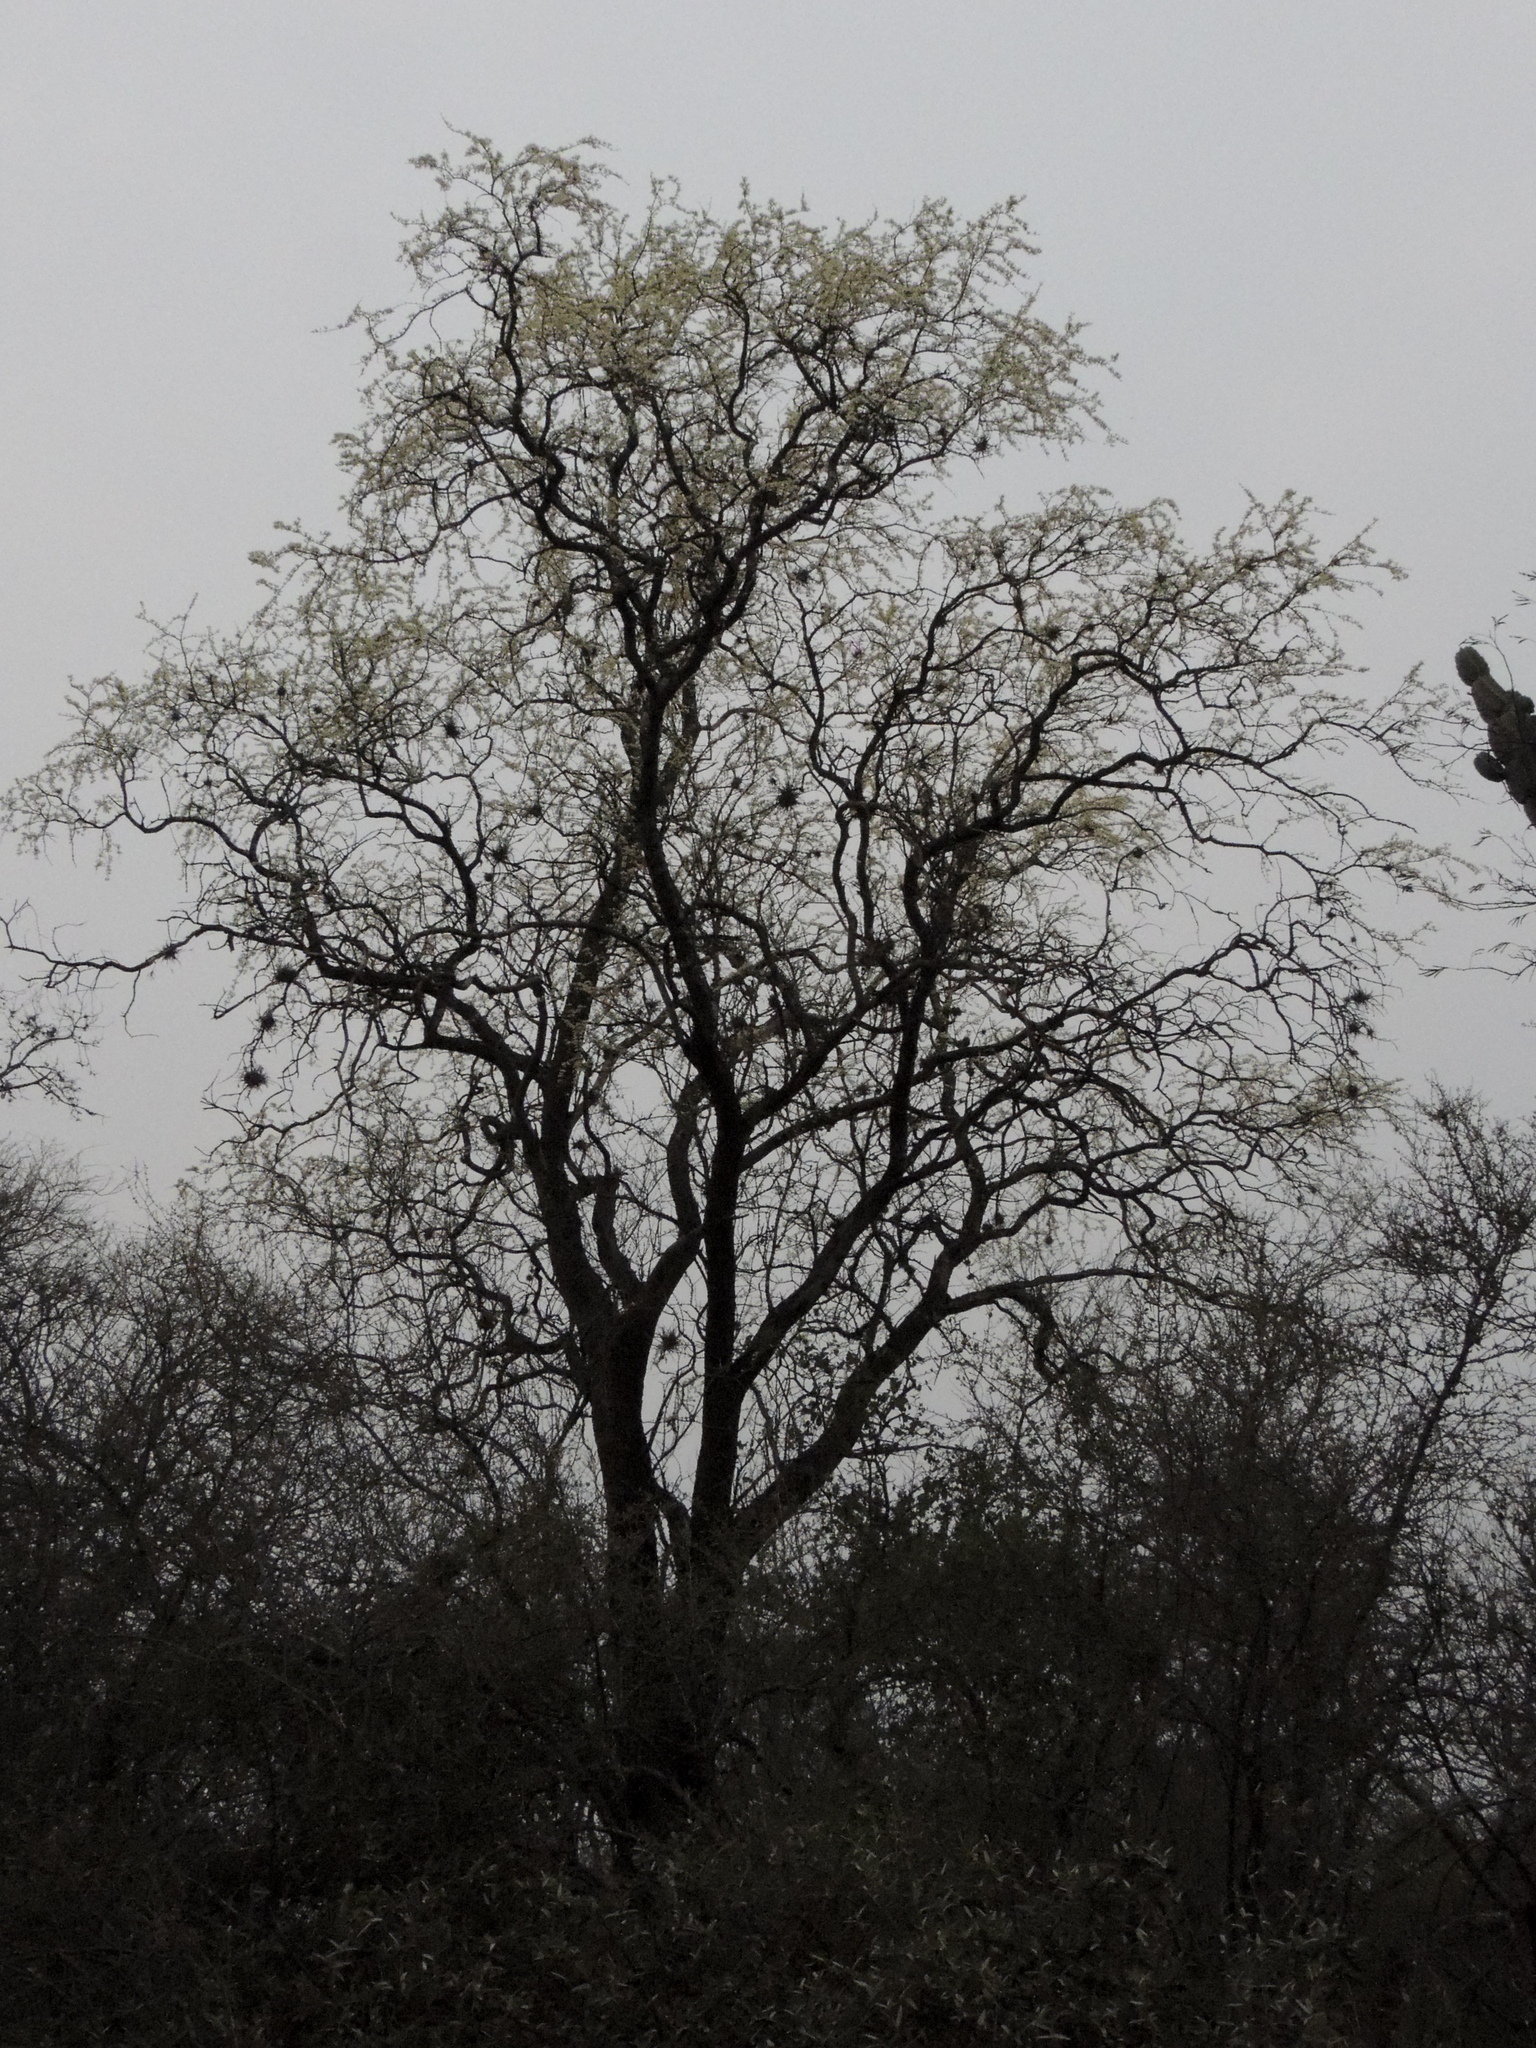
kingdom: Plantae
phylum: Tracheophyta
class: Magnoliopsida
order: Zygophyllales
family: Zygophyllaceae
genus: Gonopterodendron
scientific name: Gonopterodendron sarmientoi
